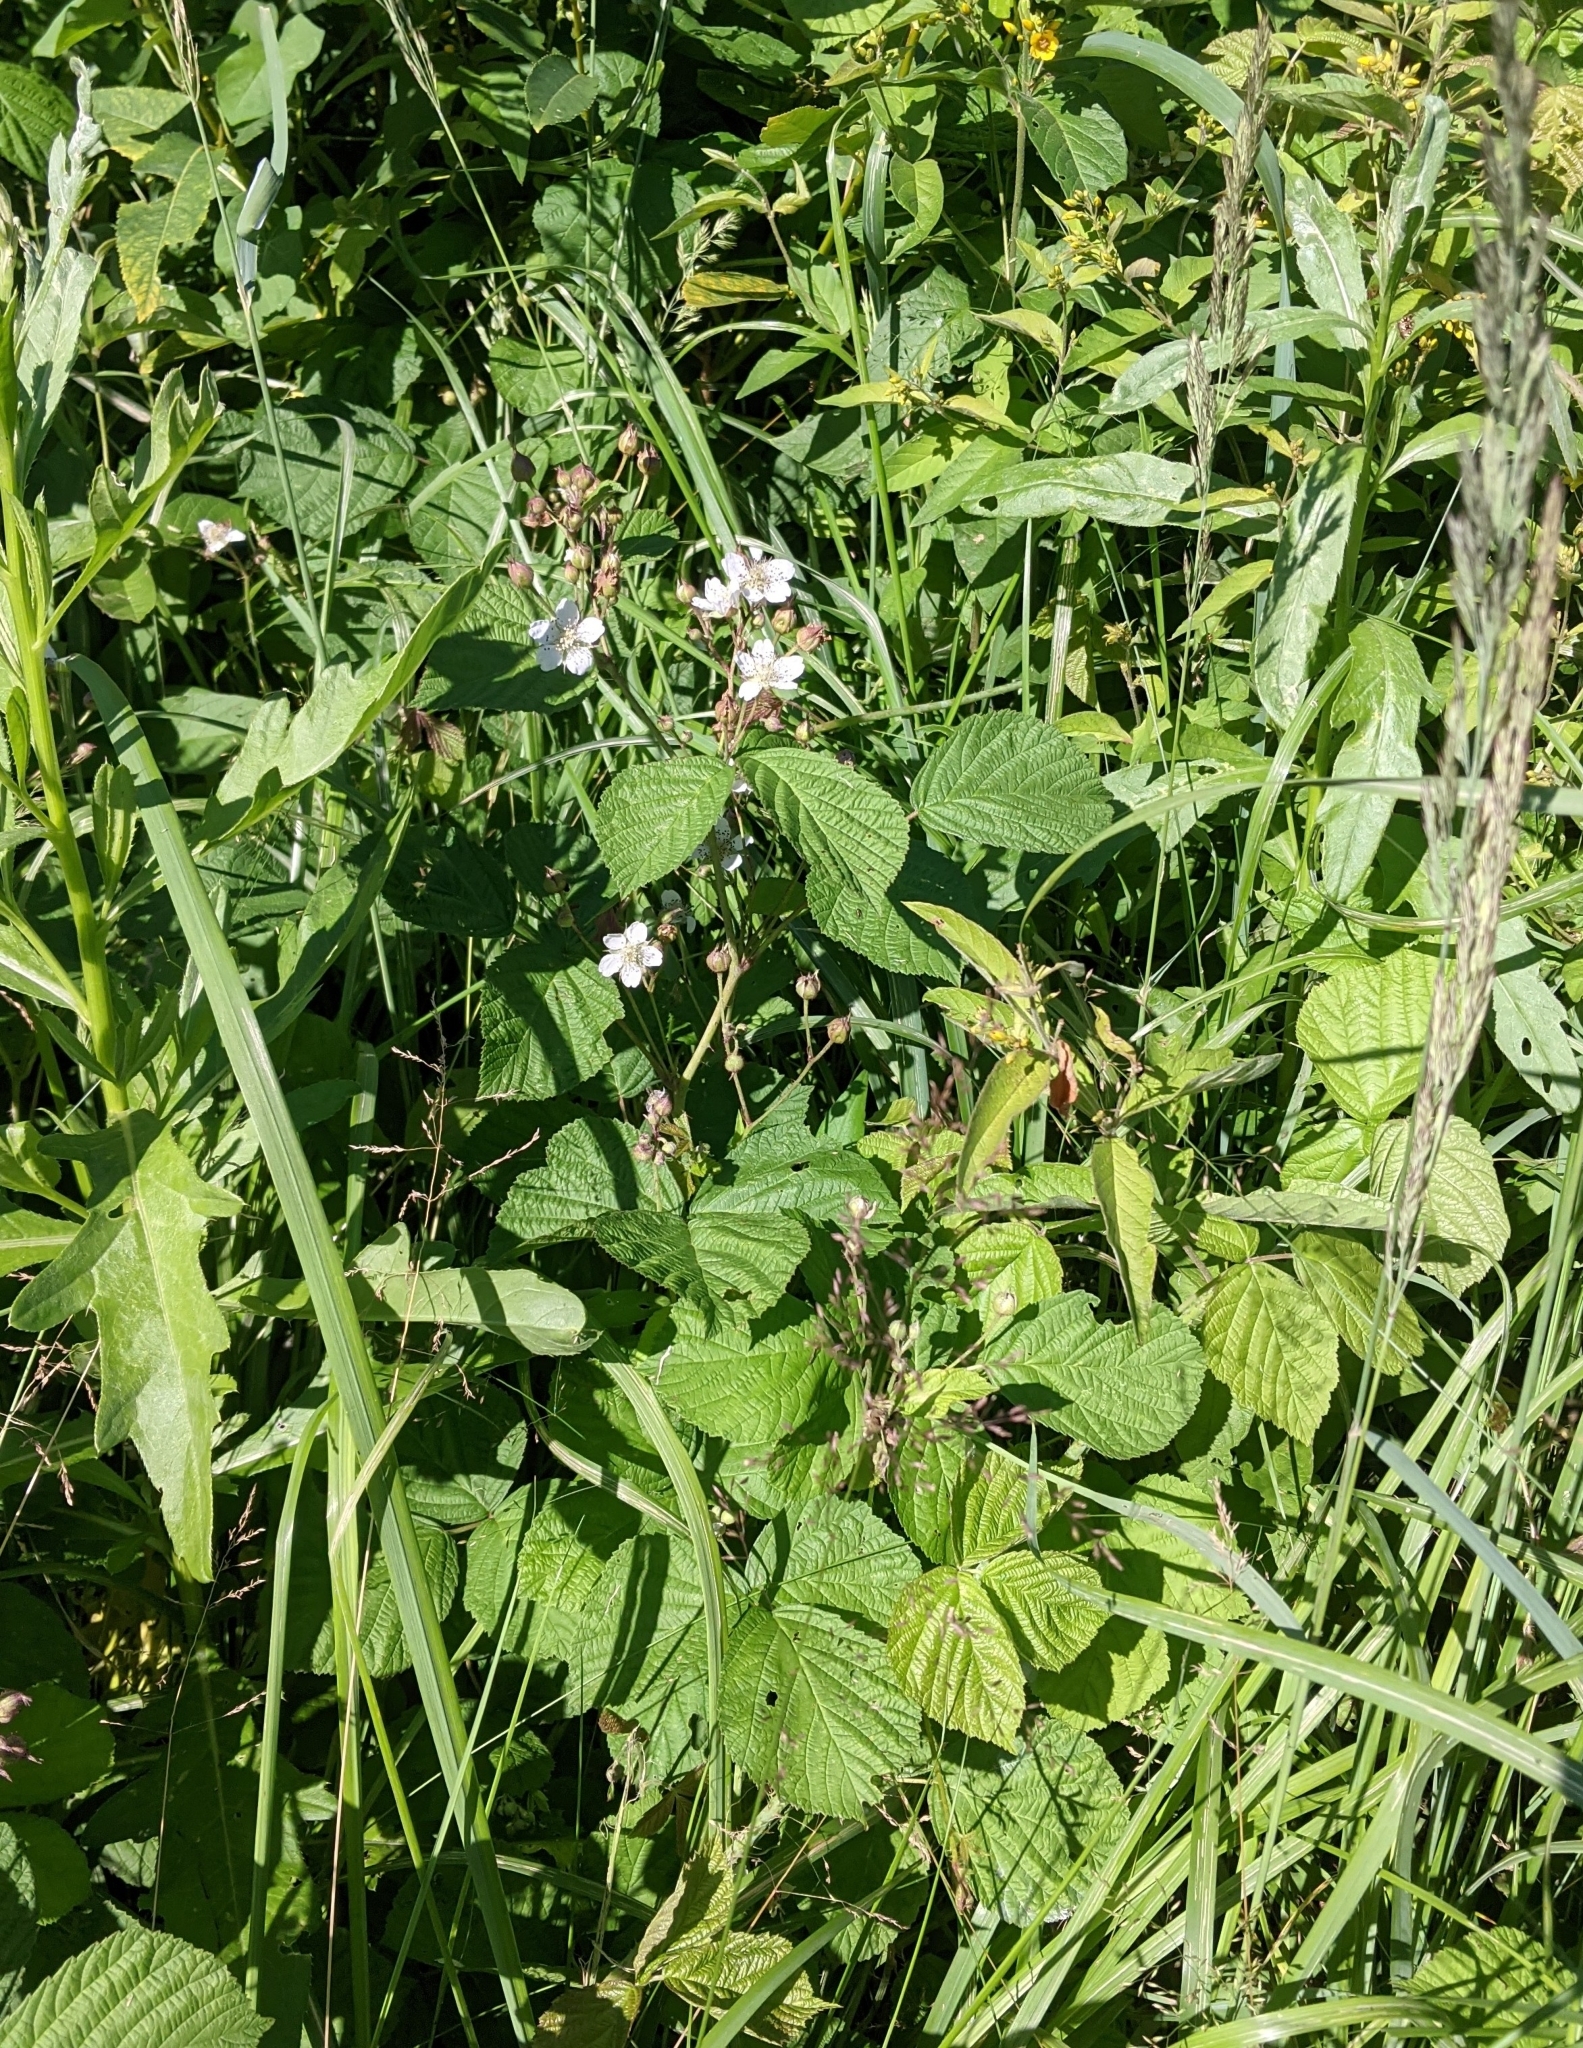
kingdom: Plantae
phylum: Tracheophyta
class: Magnoliopsida
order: Rosales
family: Rosaceae
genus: Rubus
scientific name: Rubus caesius
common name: Dewberry
